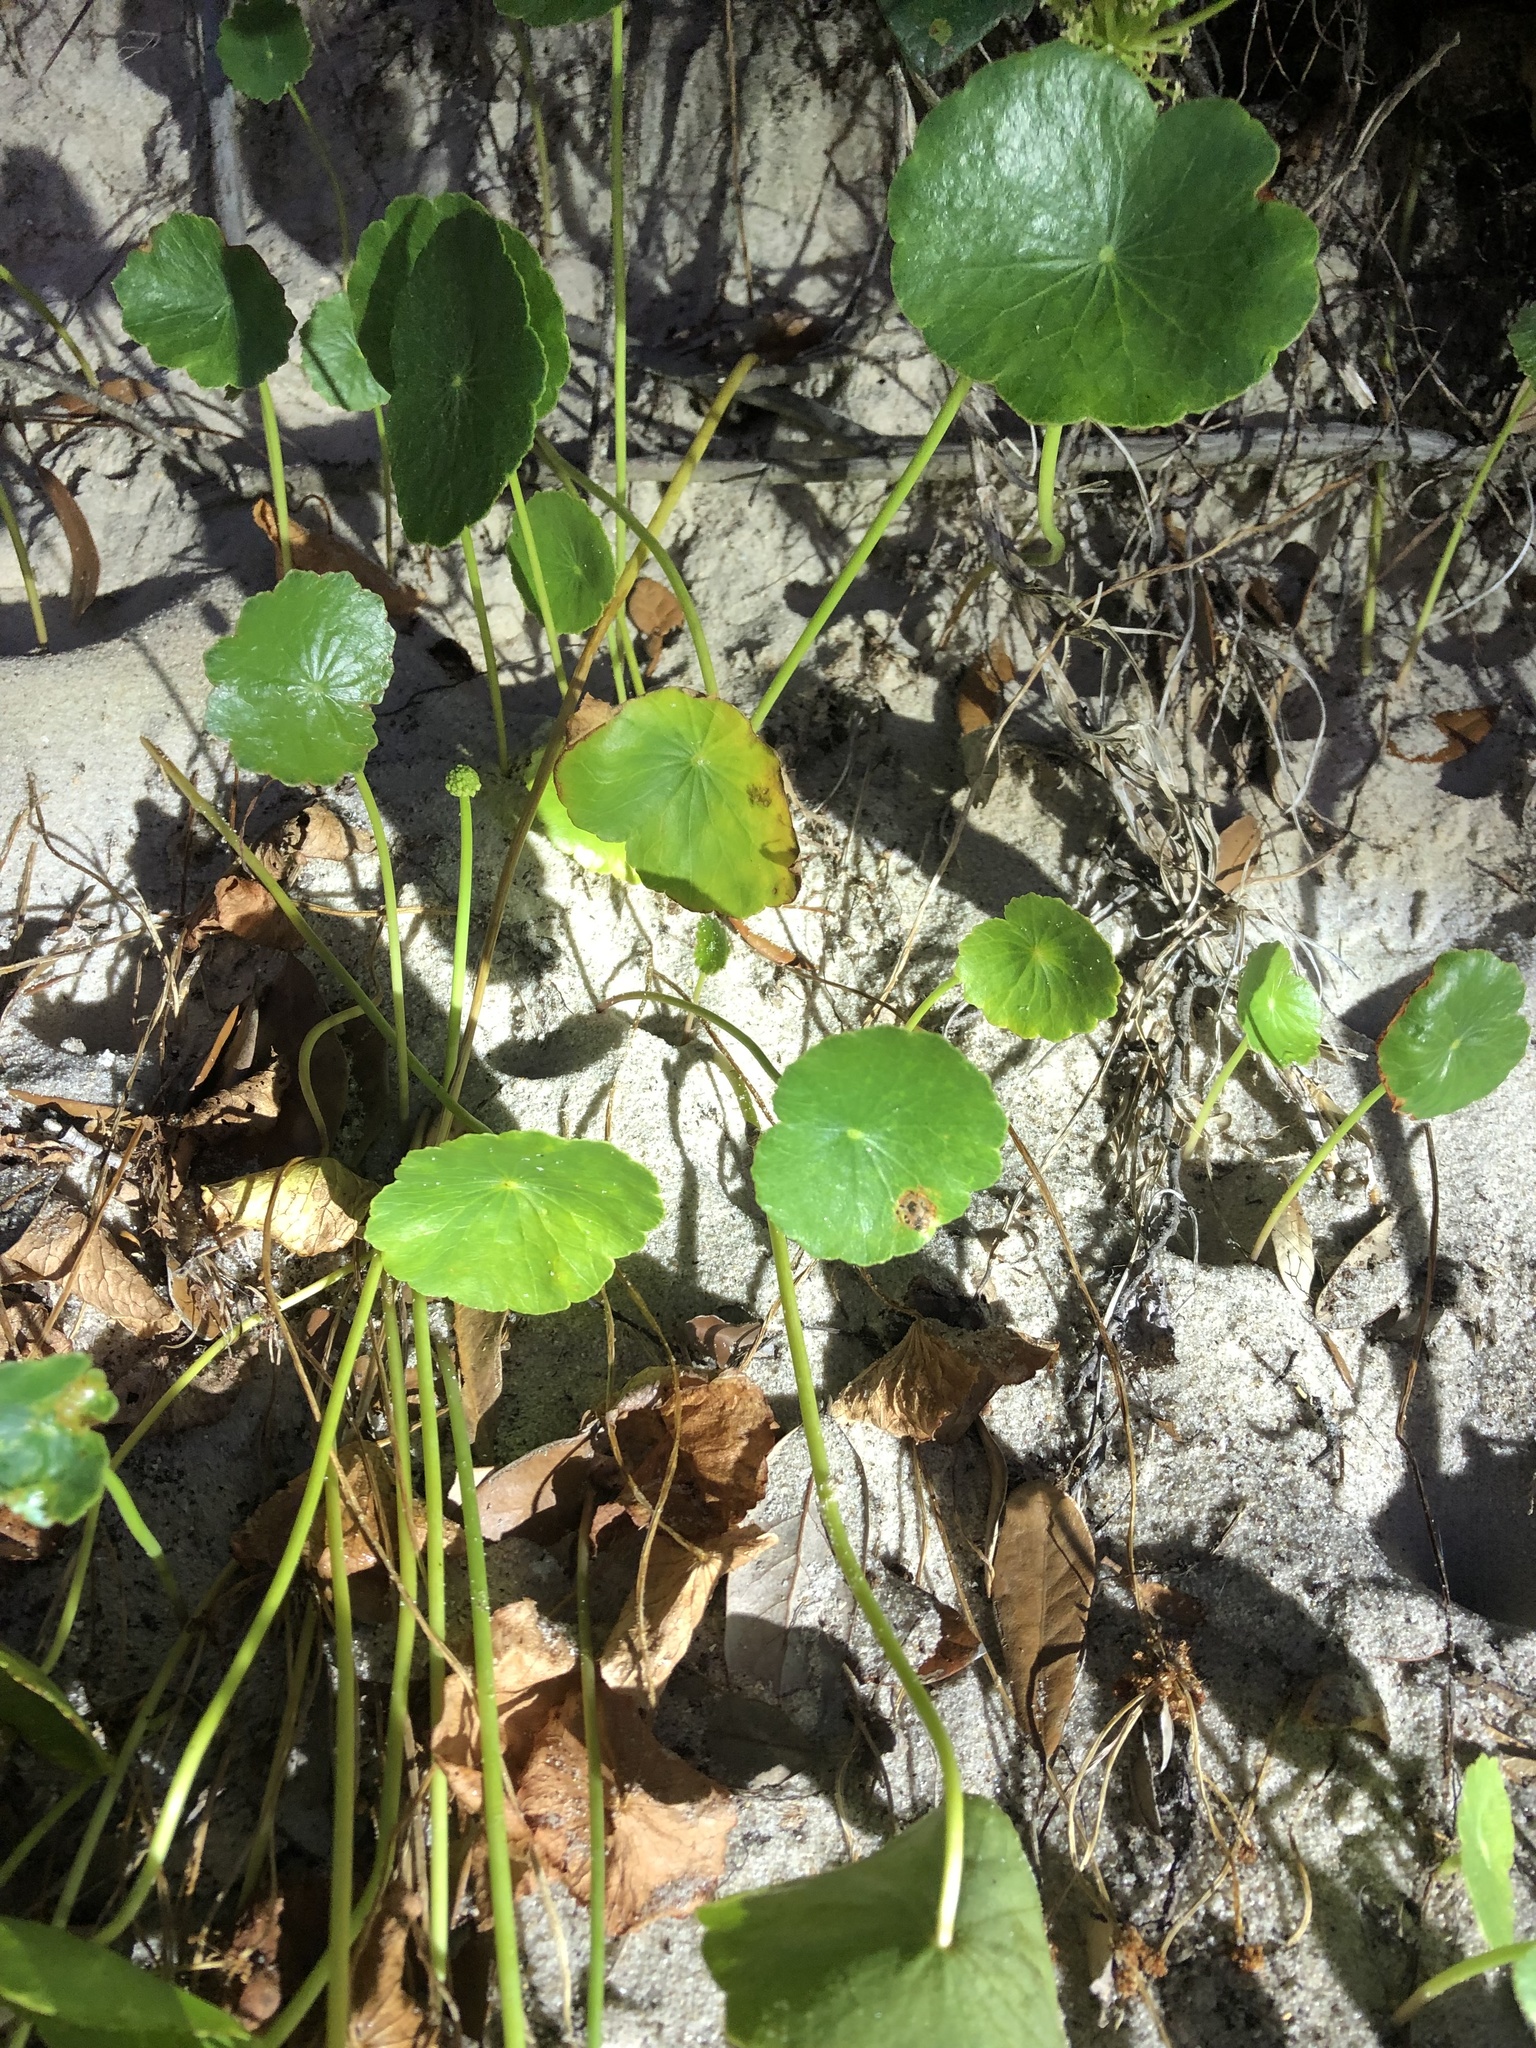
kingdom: Plantae
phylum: Tracheophyta
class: Magnoliopsida
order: Apiales
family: Araliaceae
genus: Hydrocotyle
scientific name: Hydrocotyle bonariensis
